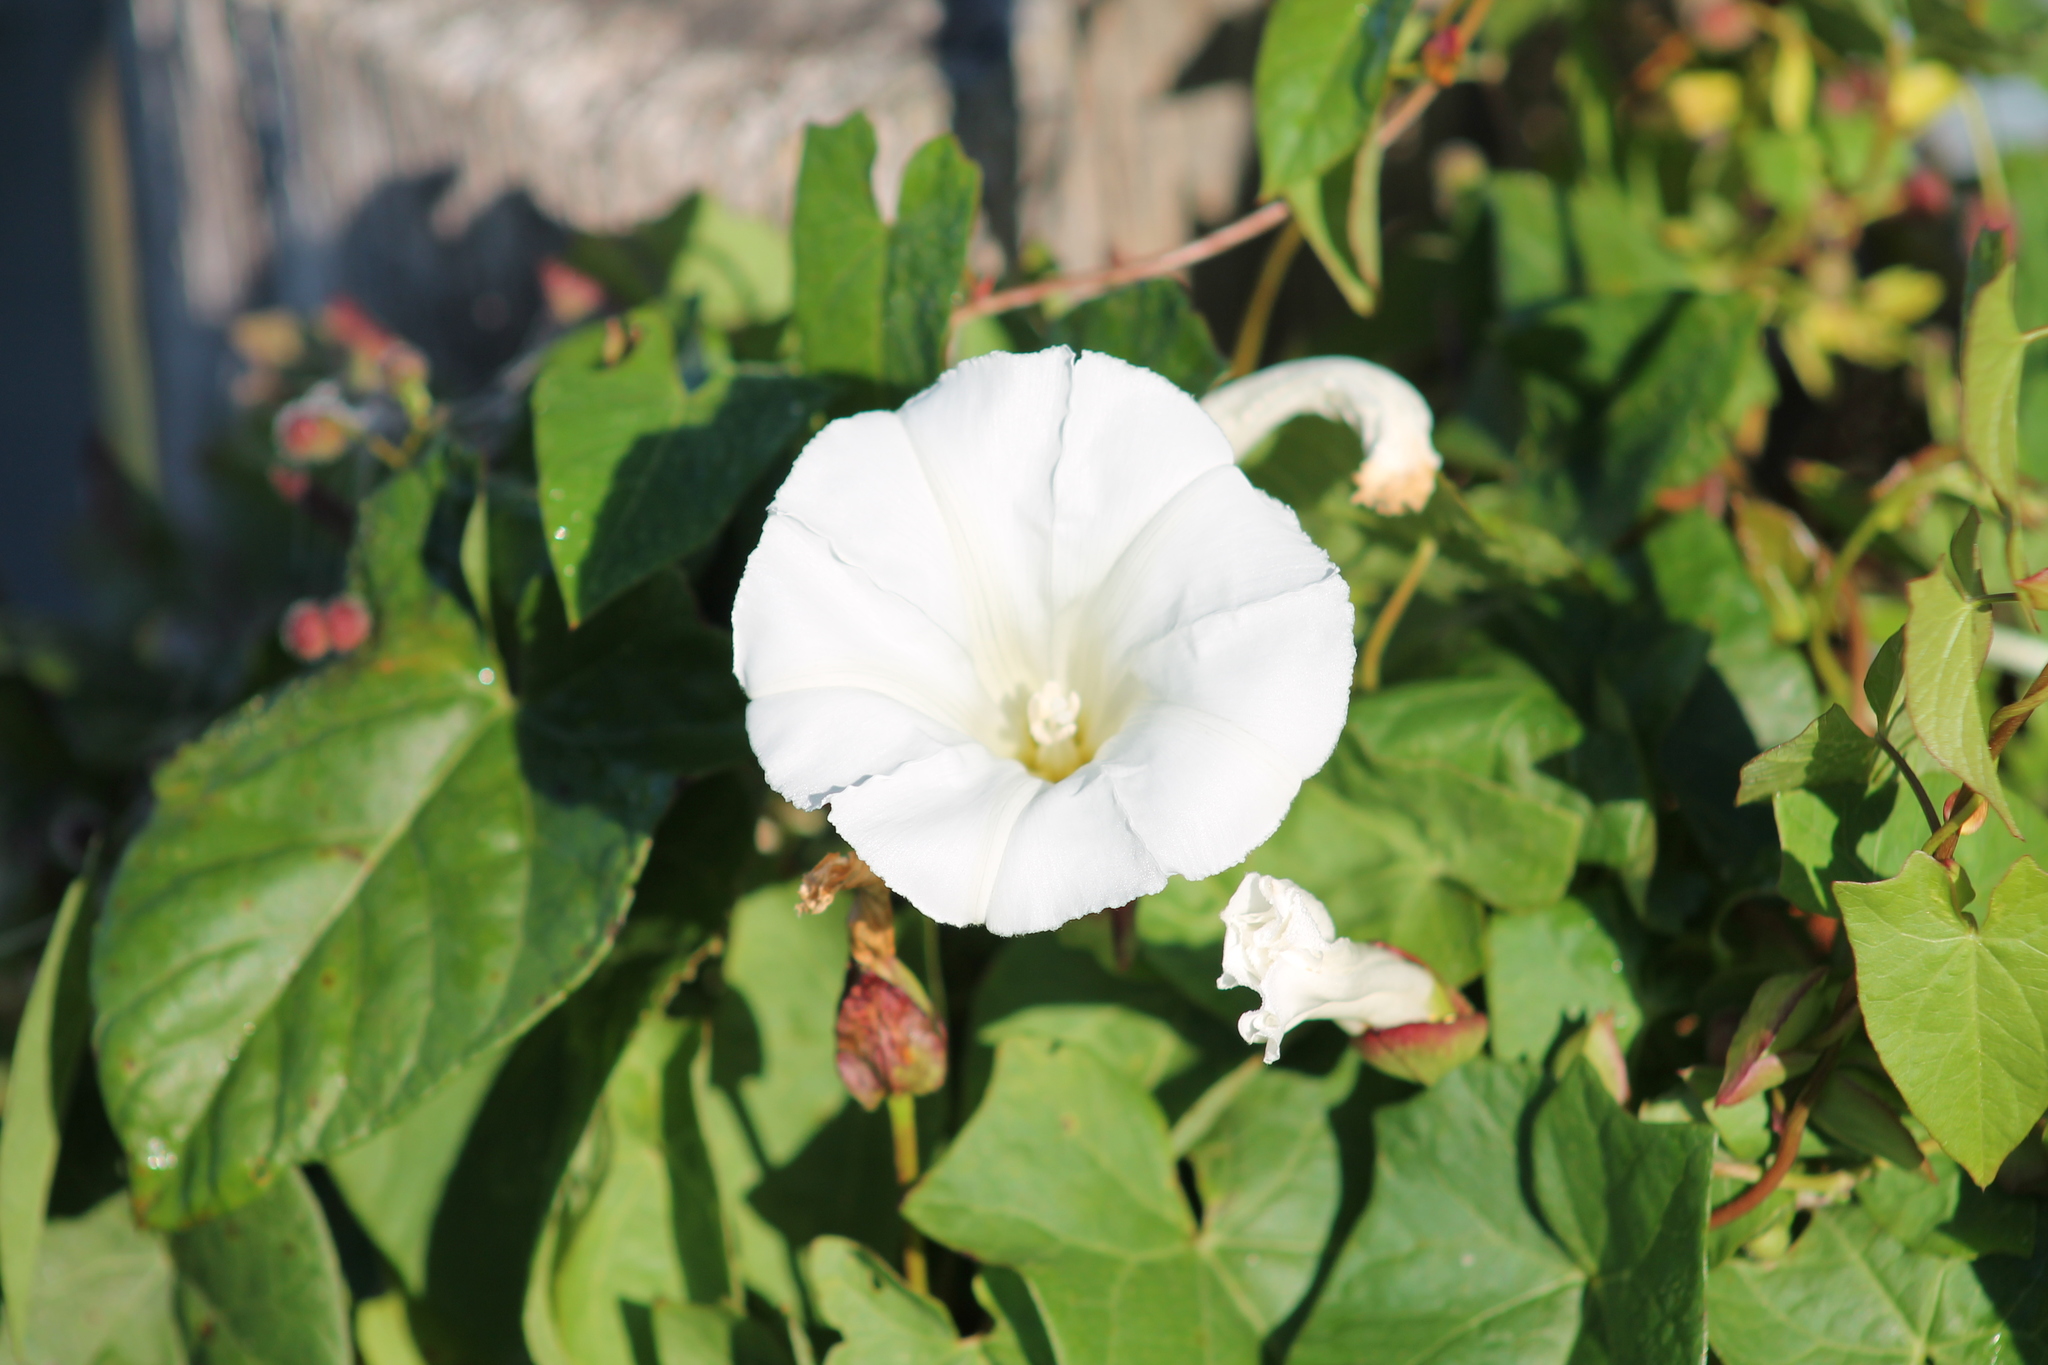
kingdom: Plantae
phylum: Tracheophyta
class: Magnoliopsida
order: Solanales
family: Convolvulaceae
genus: Calystegia
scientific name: Calystegia sepium
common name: Hedge bindweed
